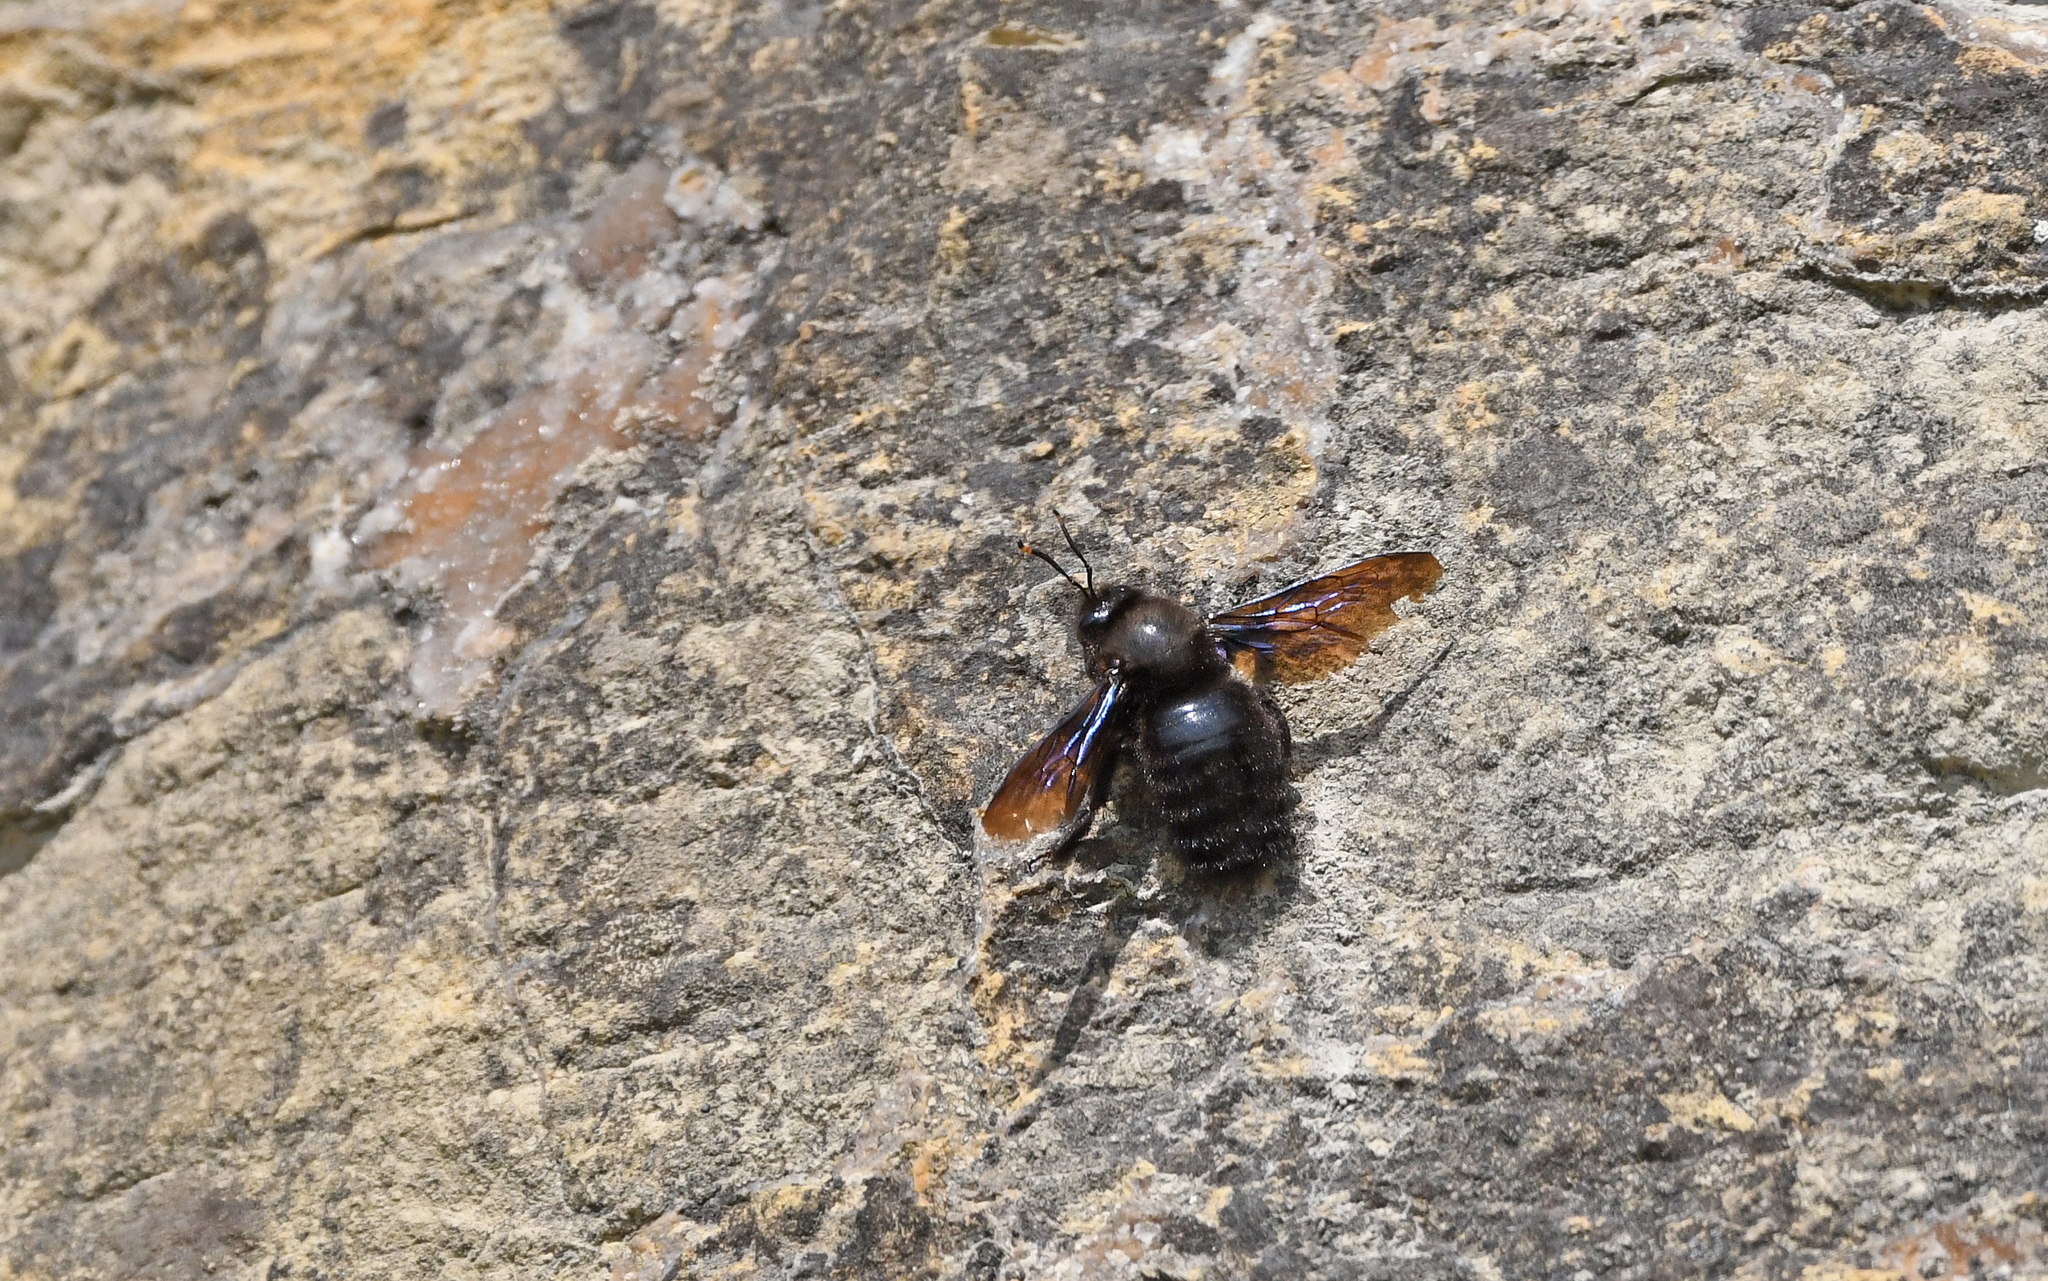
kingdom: Animalia
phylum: Arthropoda
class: Insecta
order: Hymenoptera
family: Apidae
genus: Xylocopa
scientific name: Xylocopa violacea
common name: Violet carpenter bee
